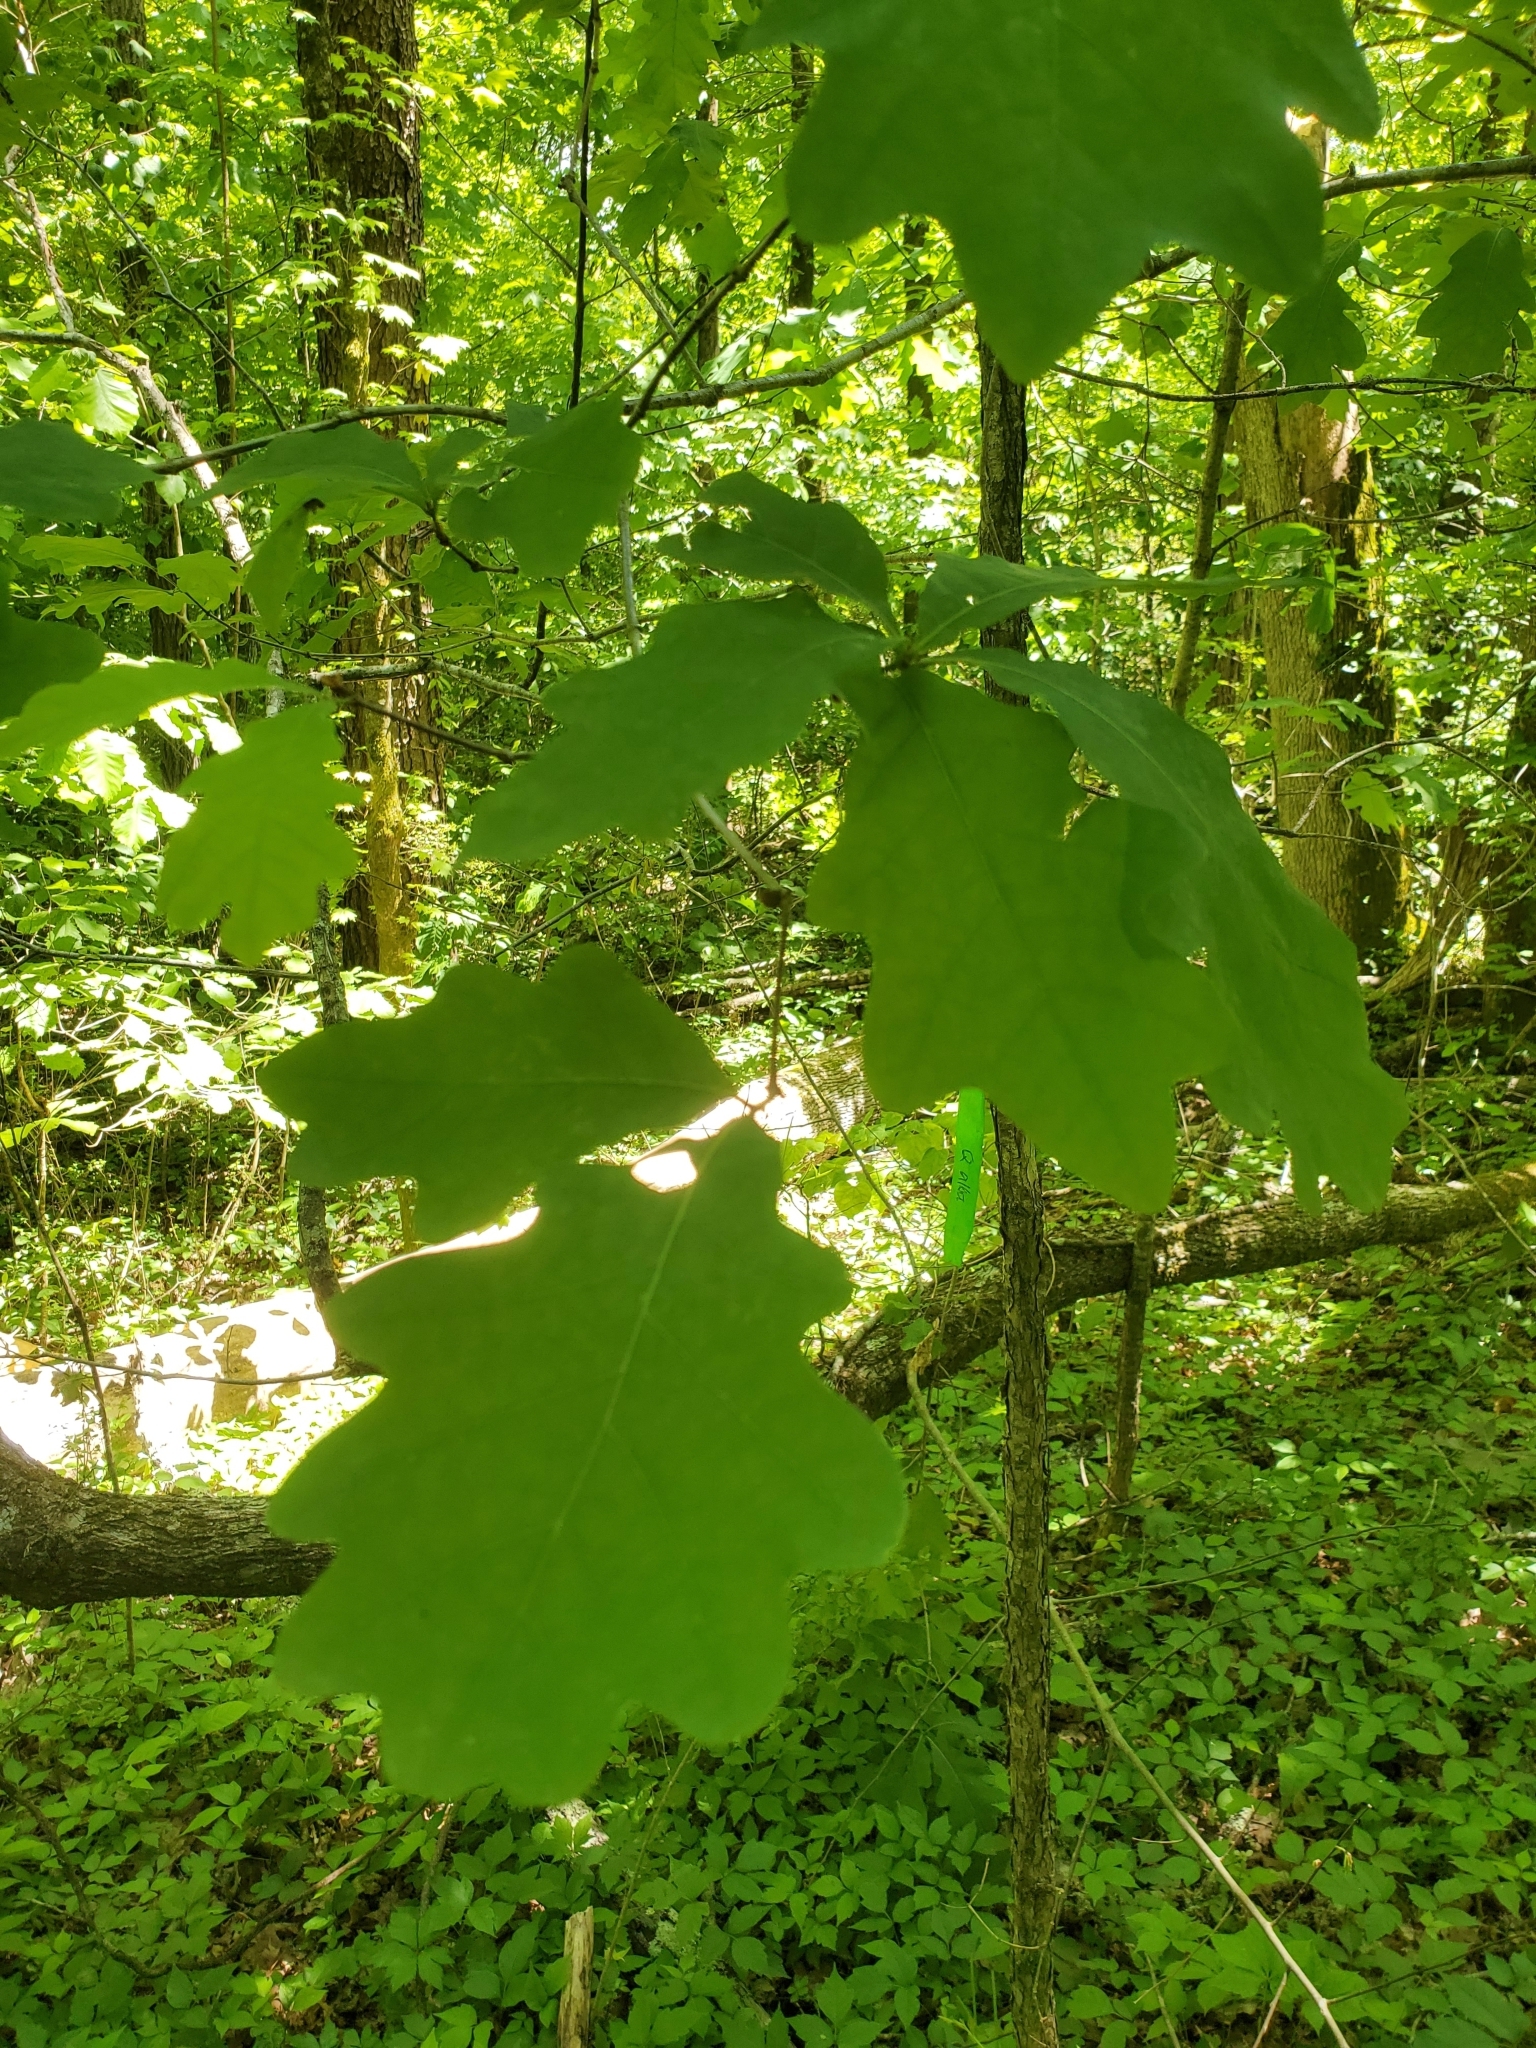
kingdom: Plantae
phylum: Tracheophyta
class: Magnoliopsida
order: Fagales
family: Fagaceae
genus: Quercus
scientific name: Quercus alba
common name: White oak
